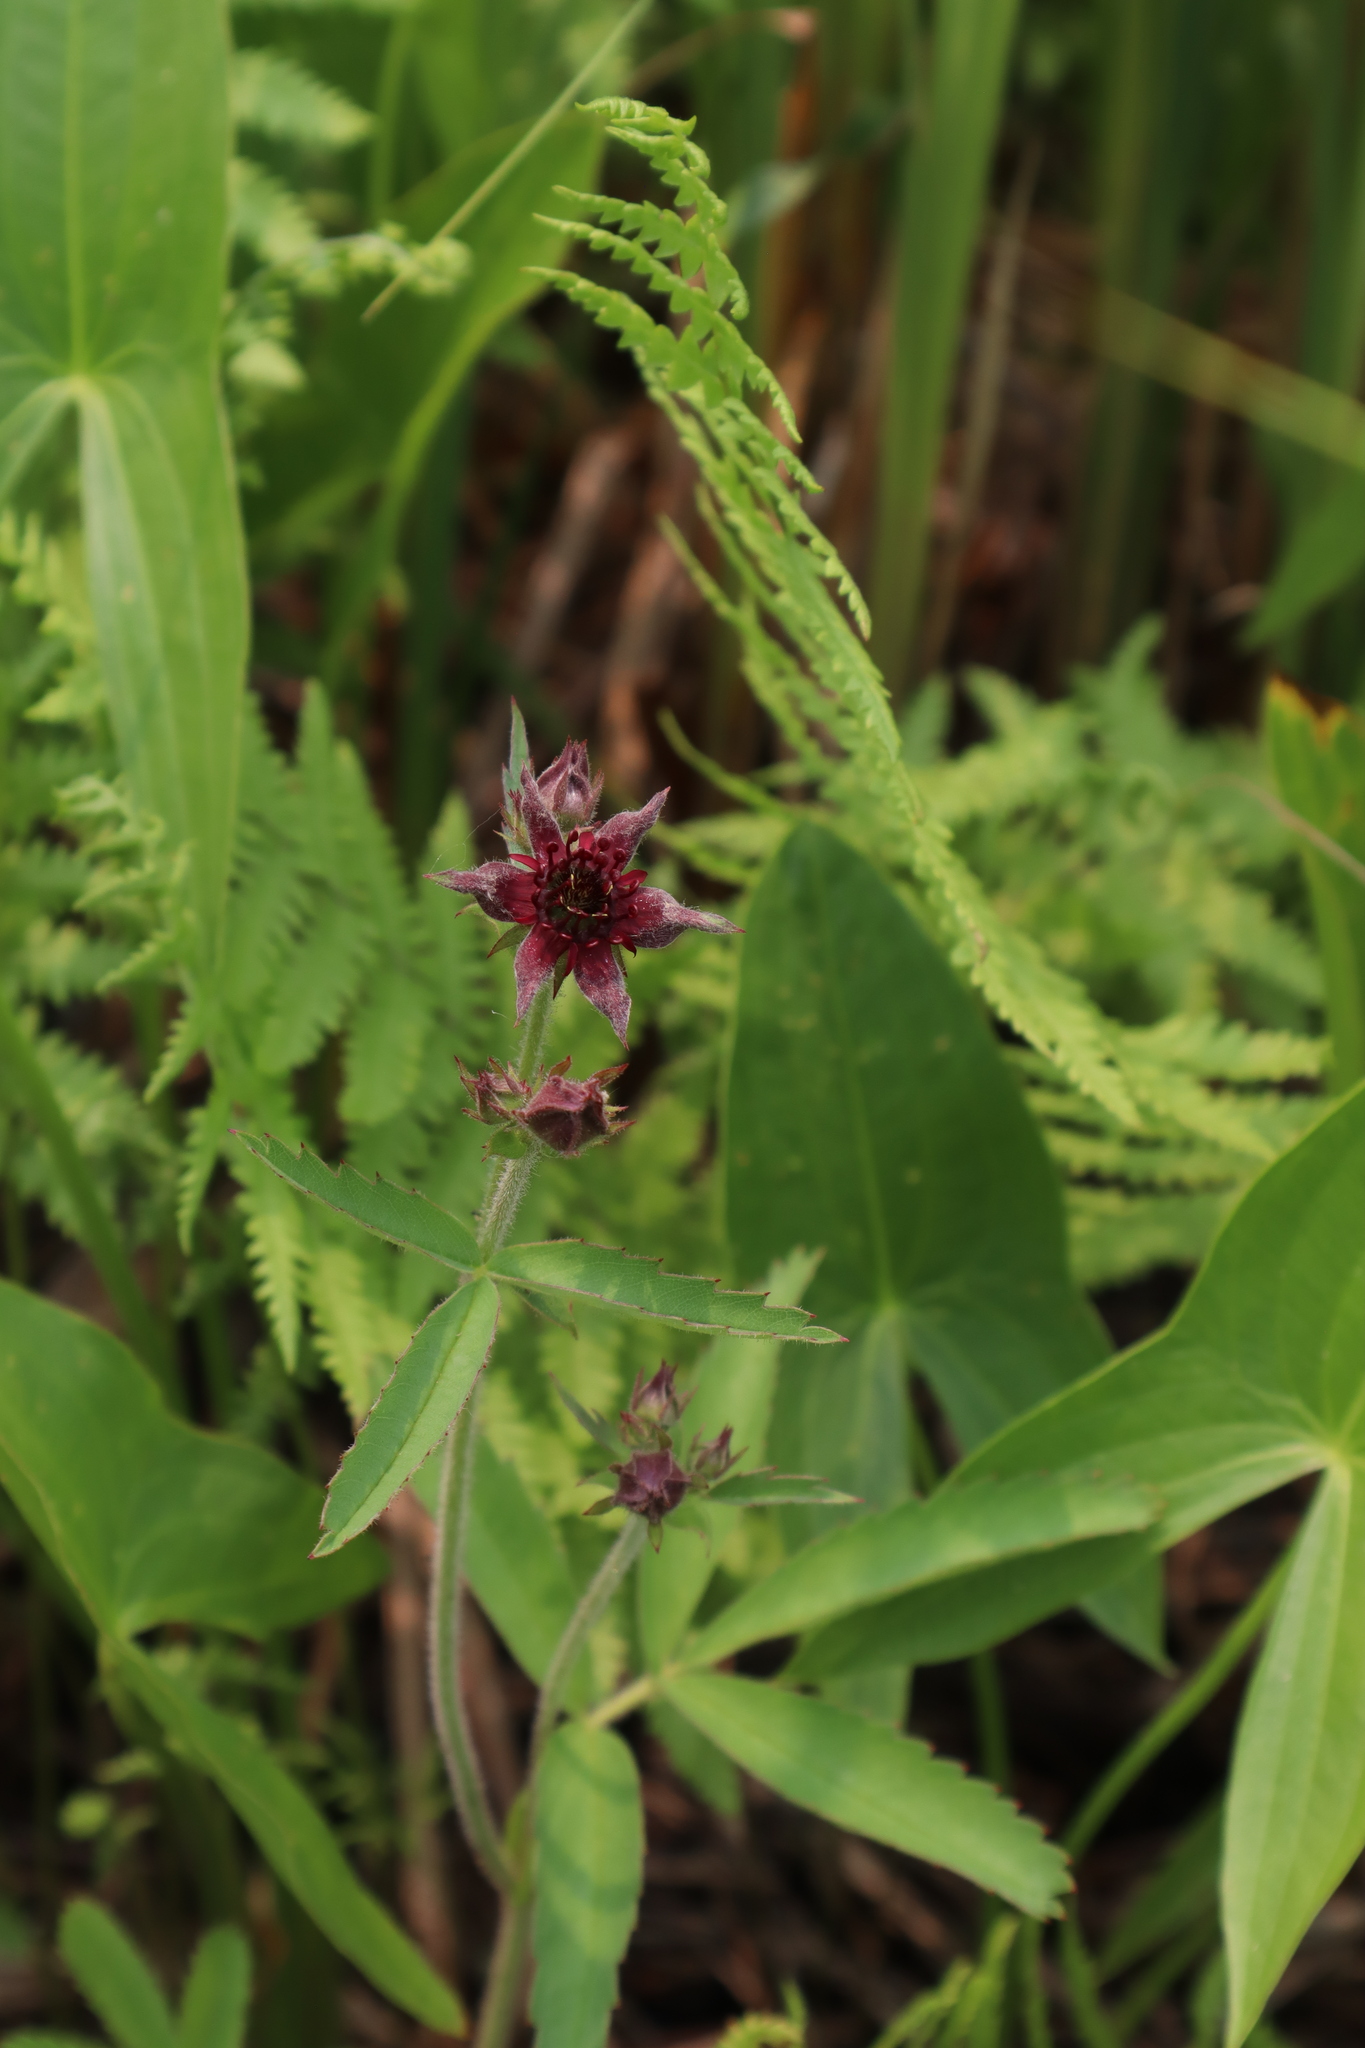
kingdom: Plantae
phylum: Tracheophyta
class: Magnoliopsida
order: Rosales
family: Rosaceae
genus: Comarum
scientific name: Comarum palustre
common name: Marsh cinquefoil
